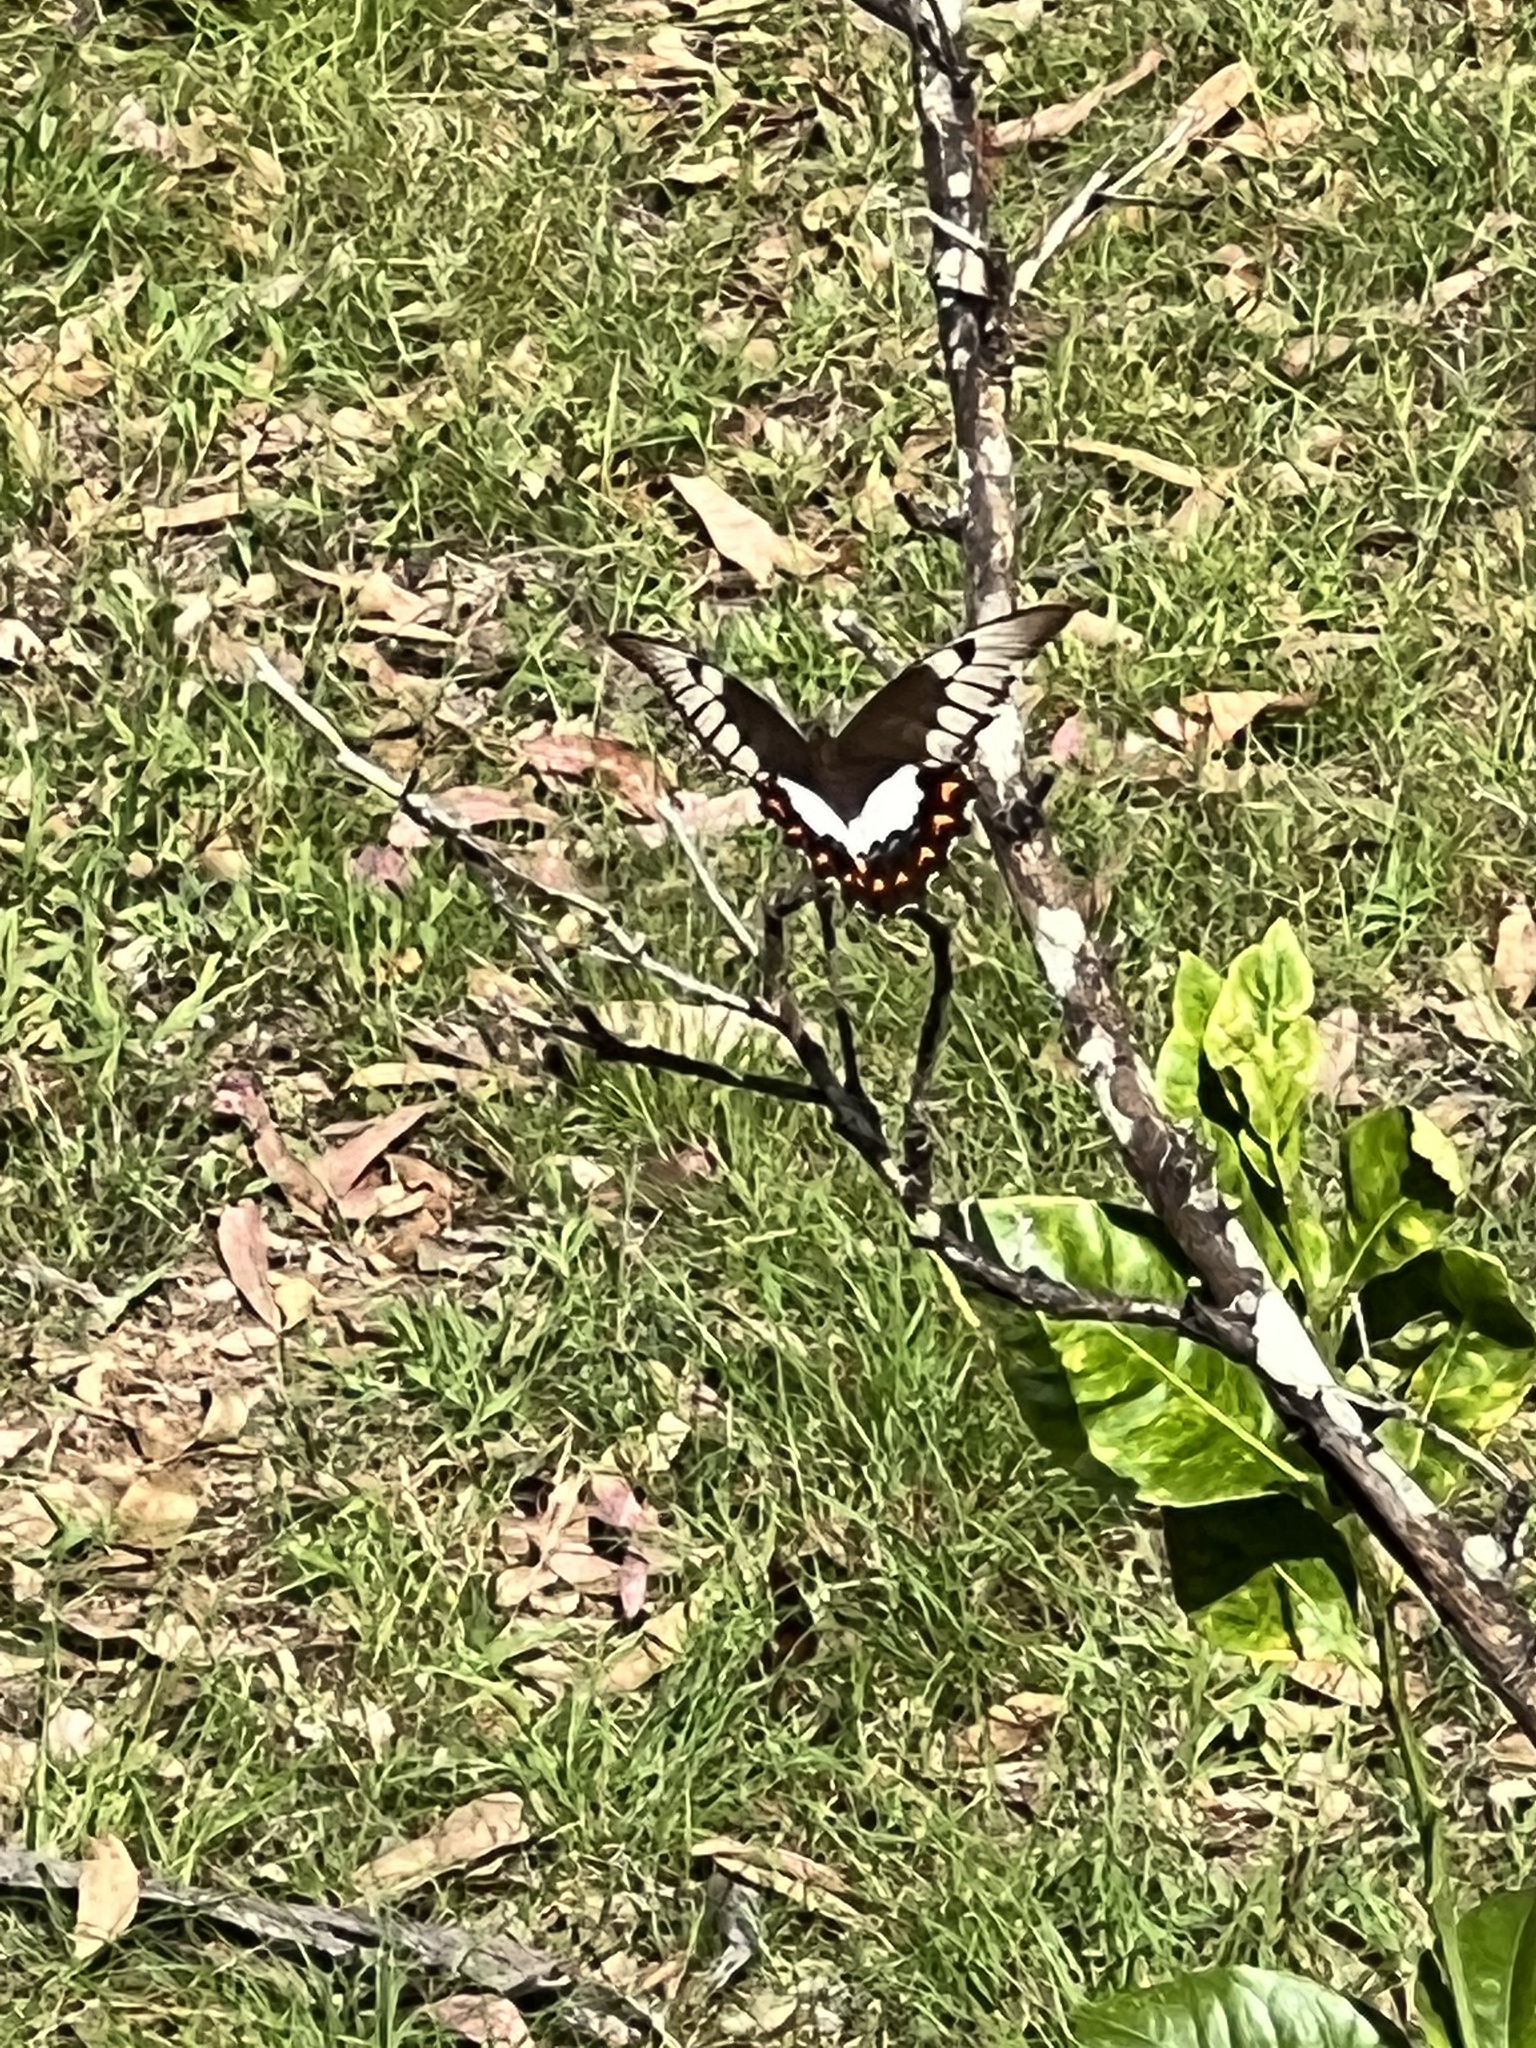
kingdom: Animalia
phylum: Arthropoda
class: Insecta
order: Lepidoptera
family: Papilionidae
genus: Papilio
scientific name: Papilio aegeus
